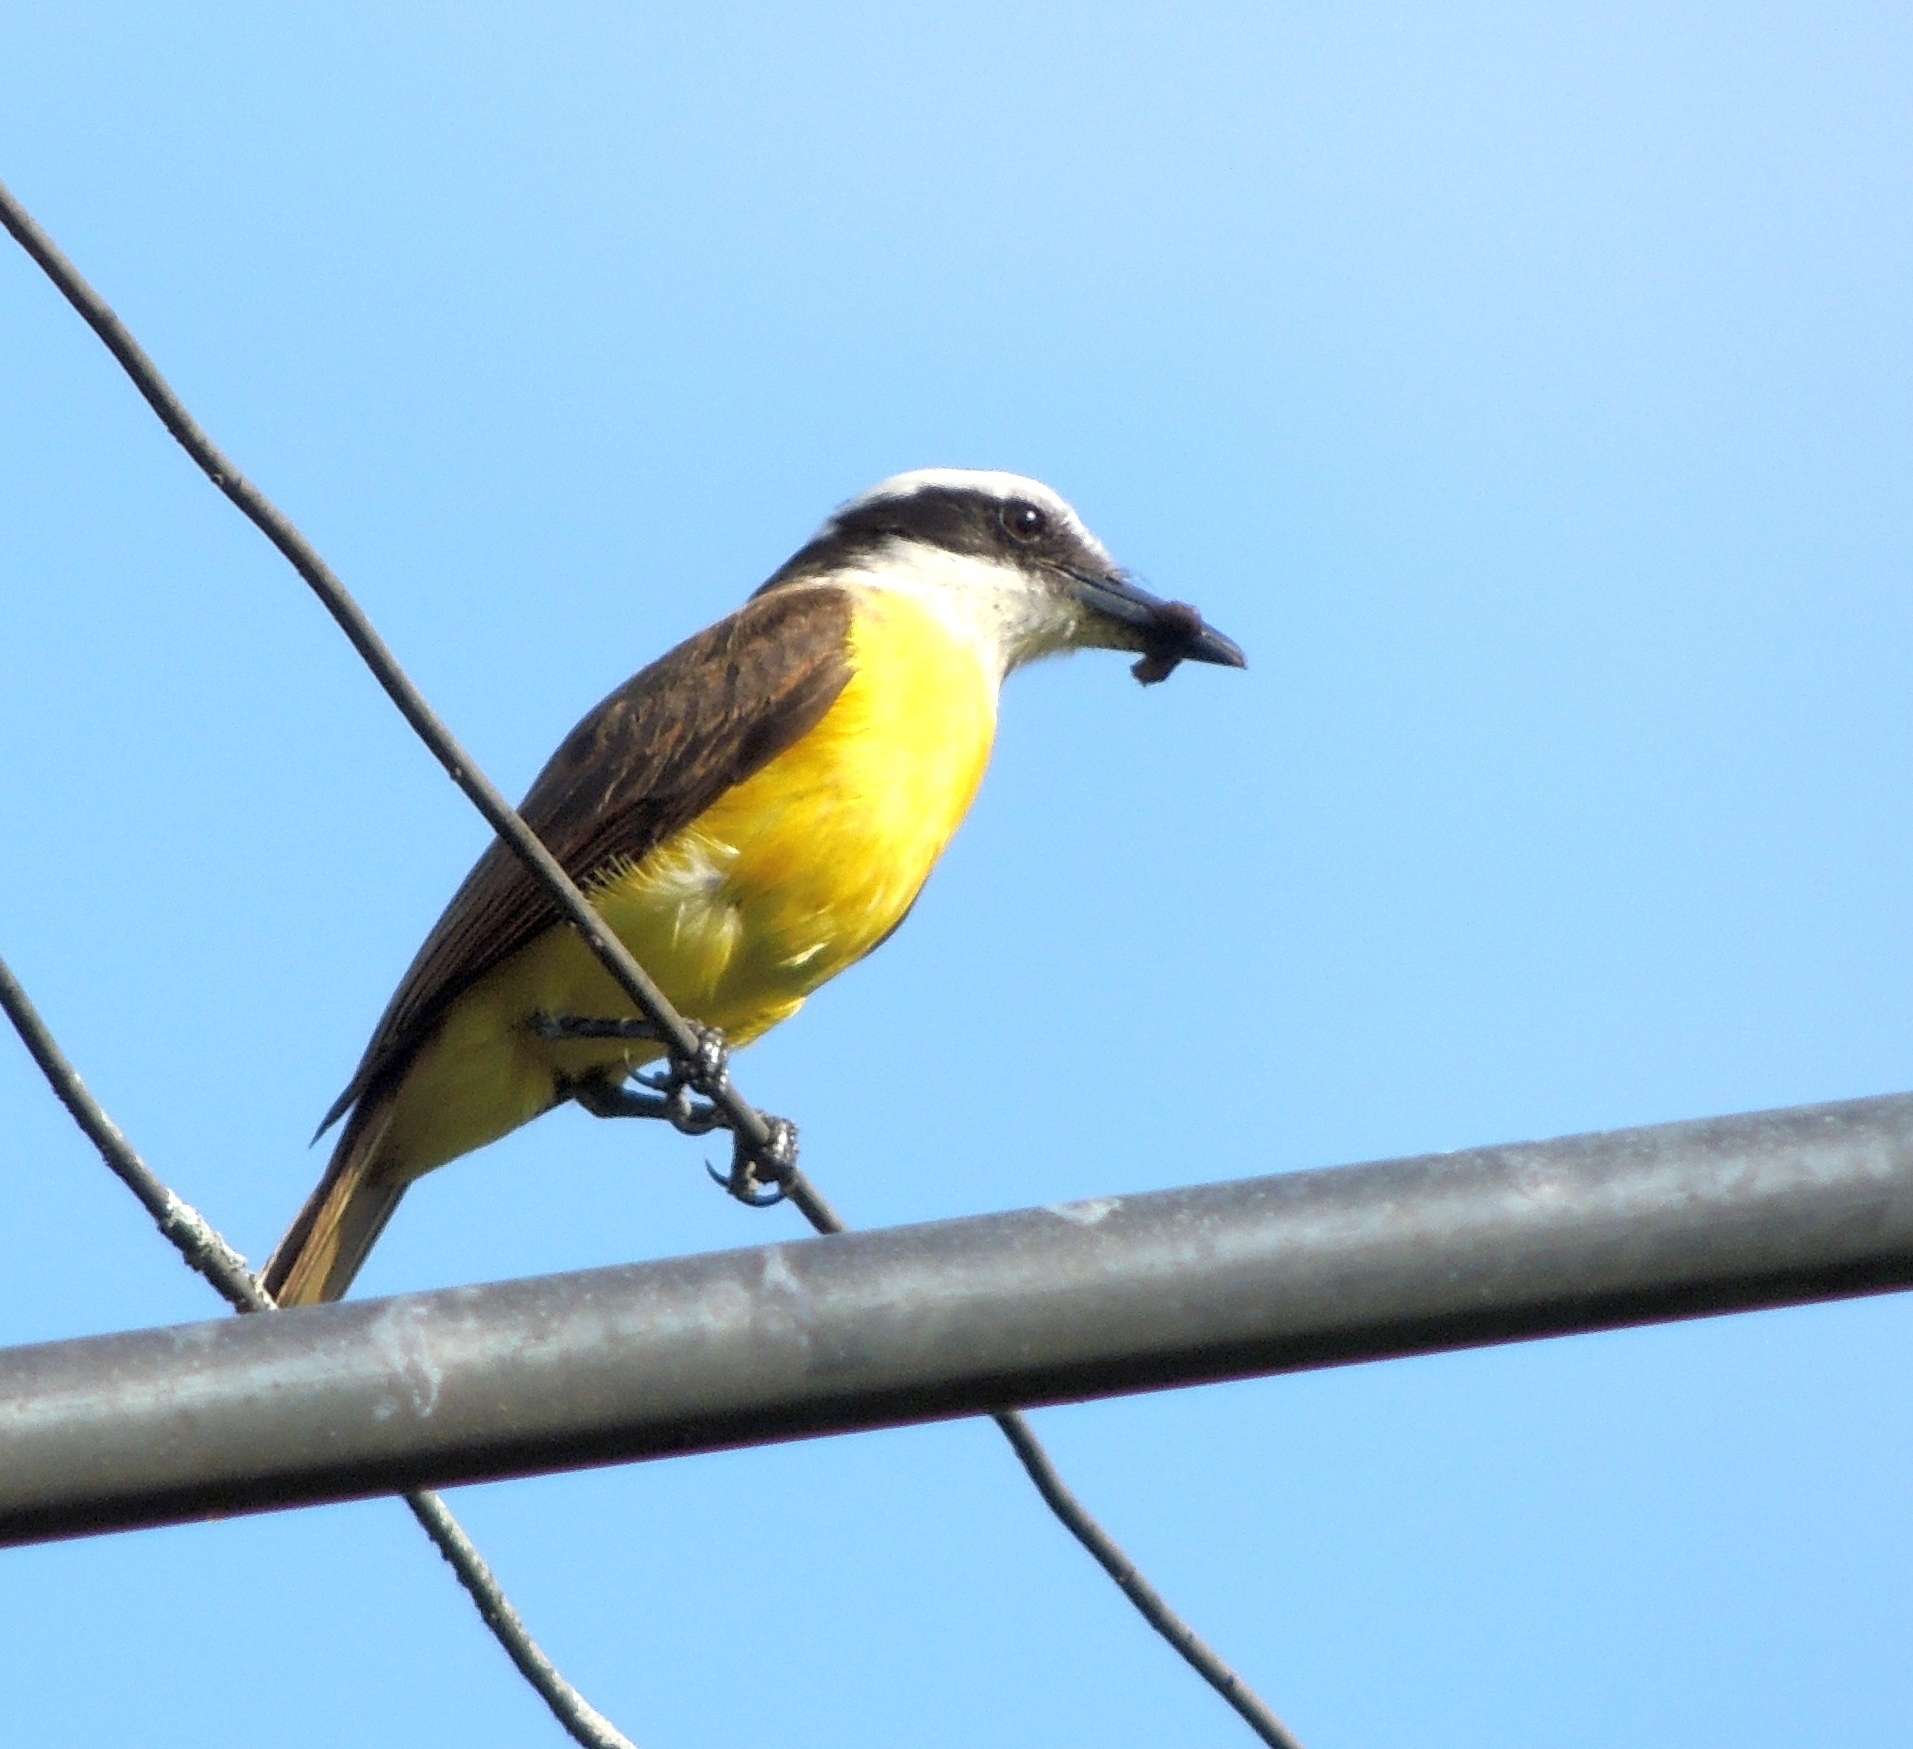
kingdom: Animalia
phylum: Chordata
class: Aves
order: Passeriformes
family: Tyrannidae
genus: Pitangus
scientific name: Pitangus sulphuratus
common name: Great kiskadee
